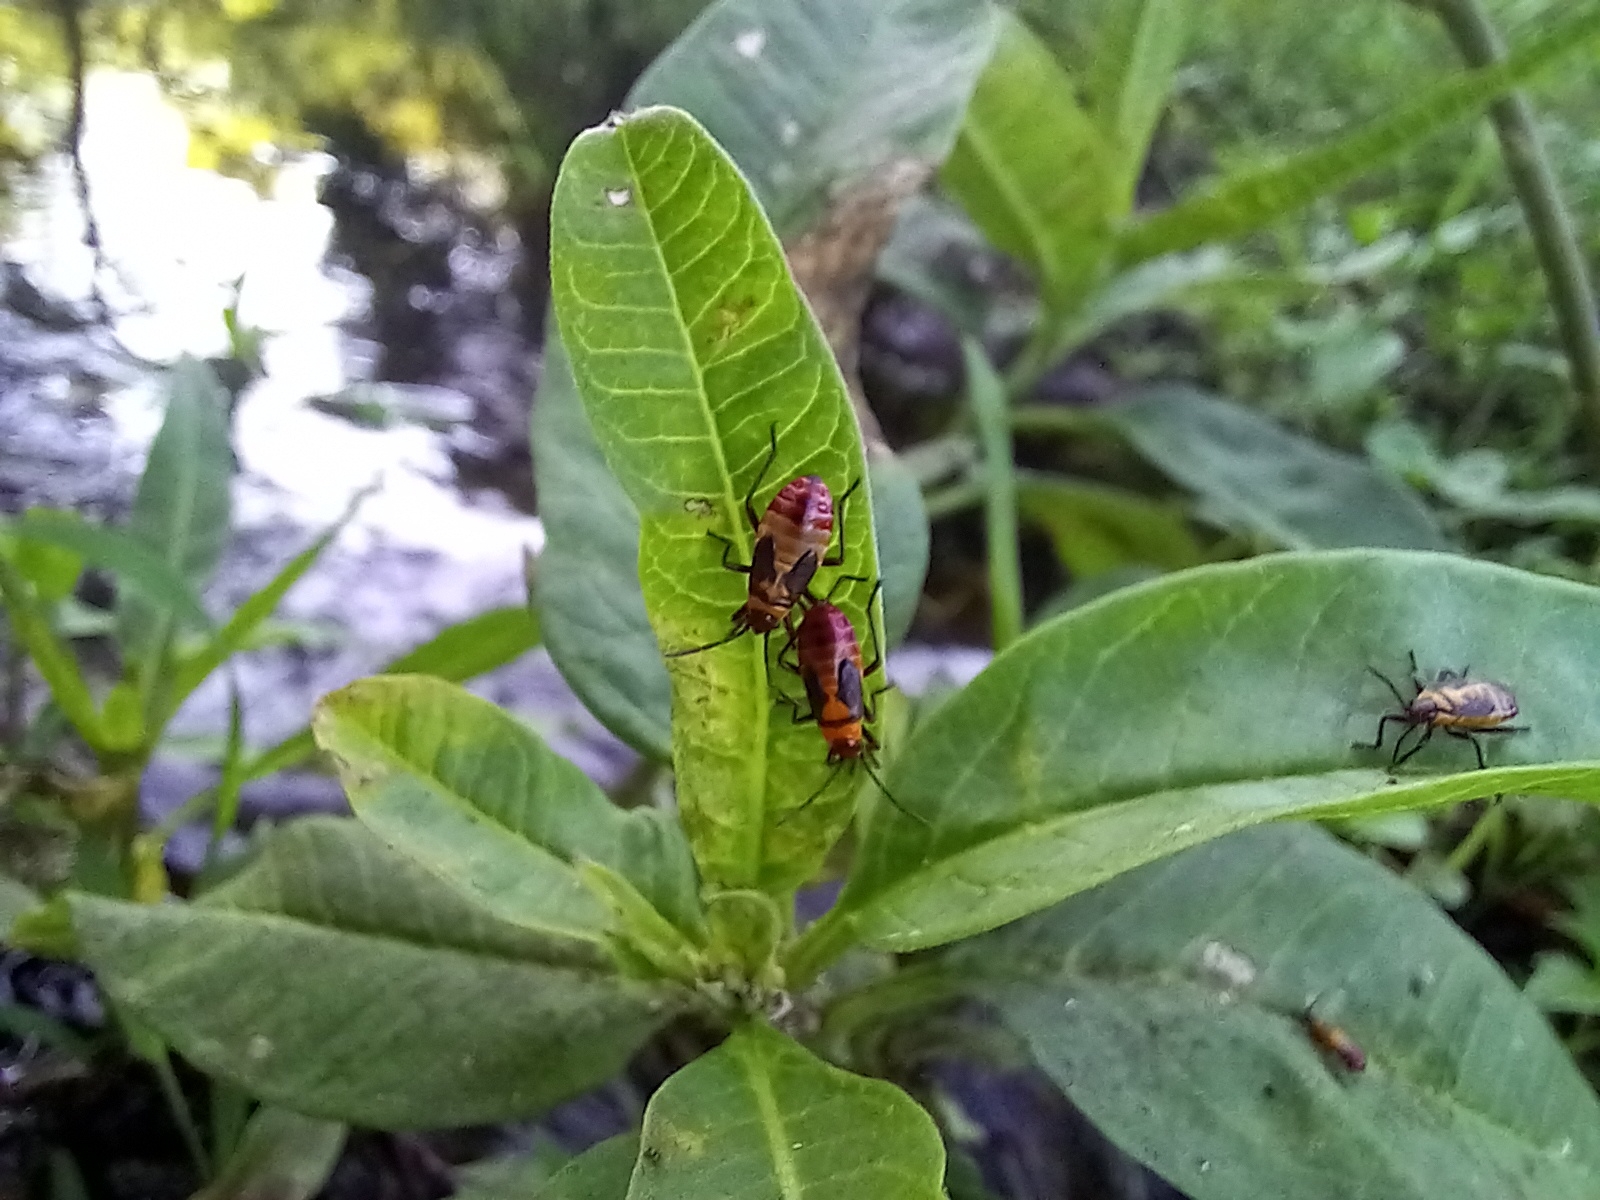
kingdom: Animalia
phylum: Arthropoda
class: Insecta
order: Hemiptera
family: Lygaeidae
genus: Oncopeltus
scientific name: Oncopeltus cingulifer
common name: Lygaeid bug
